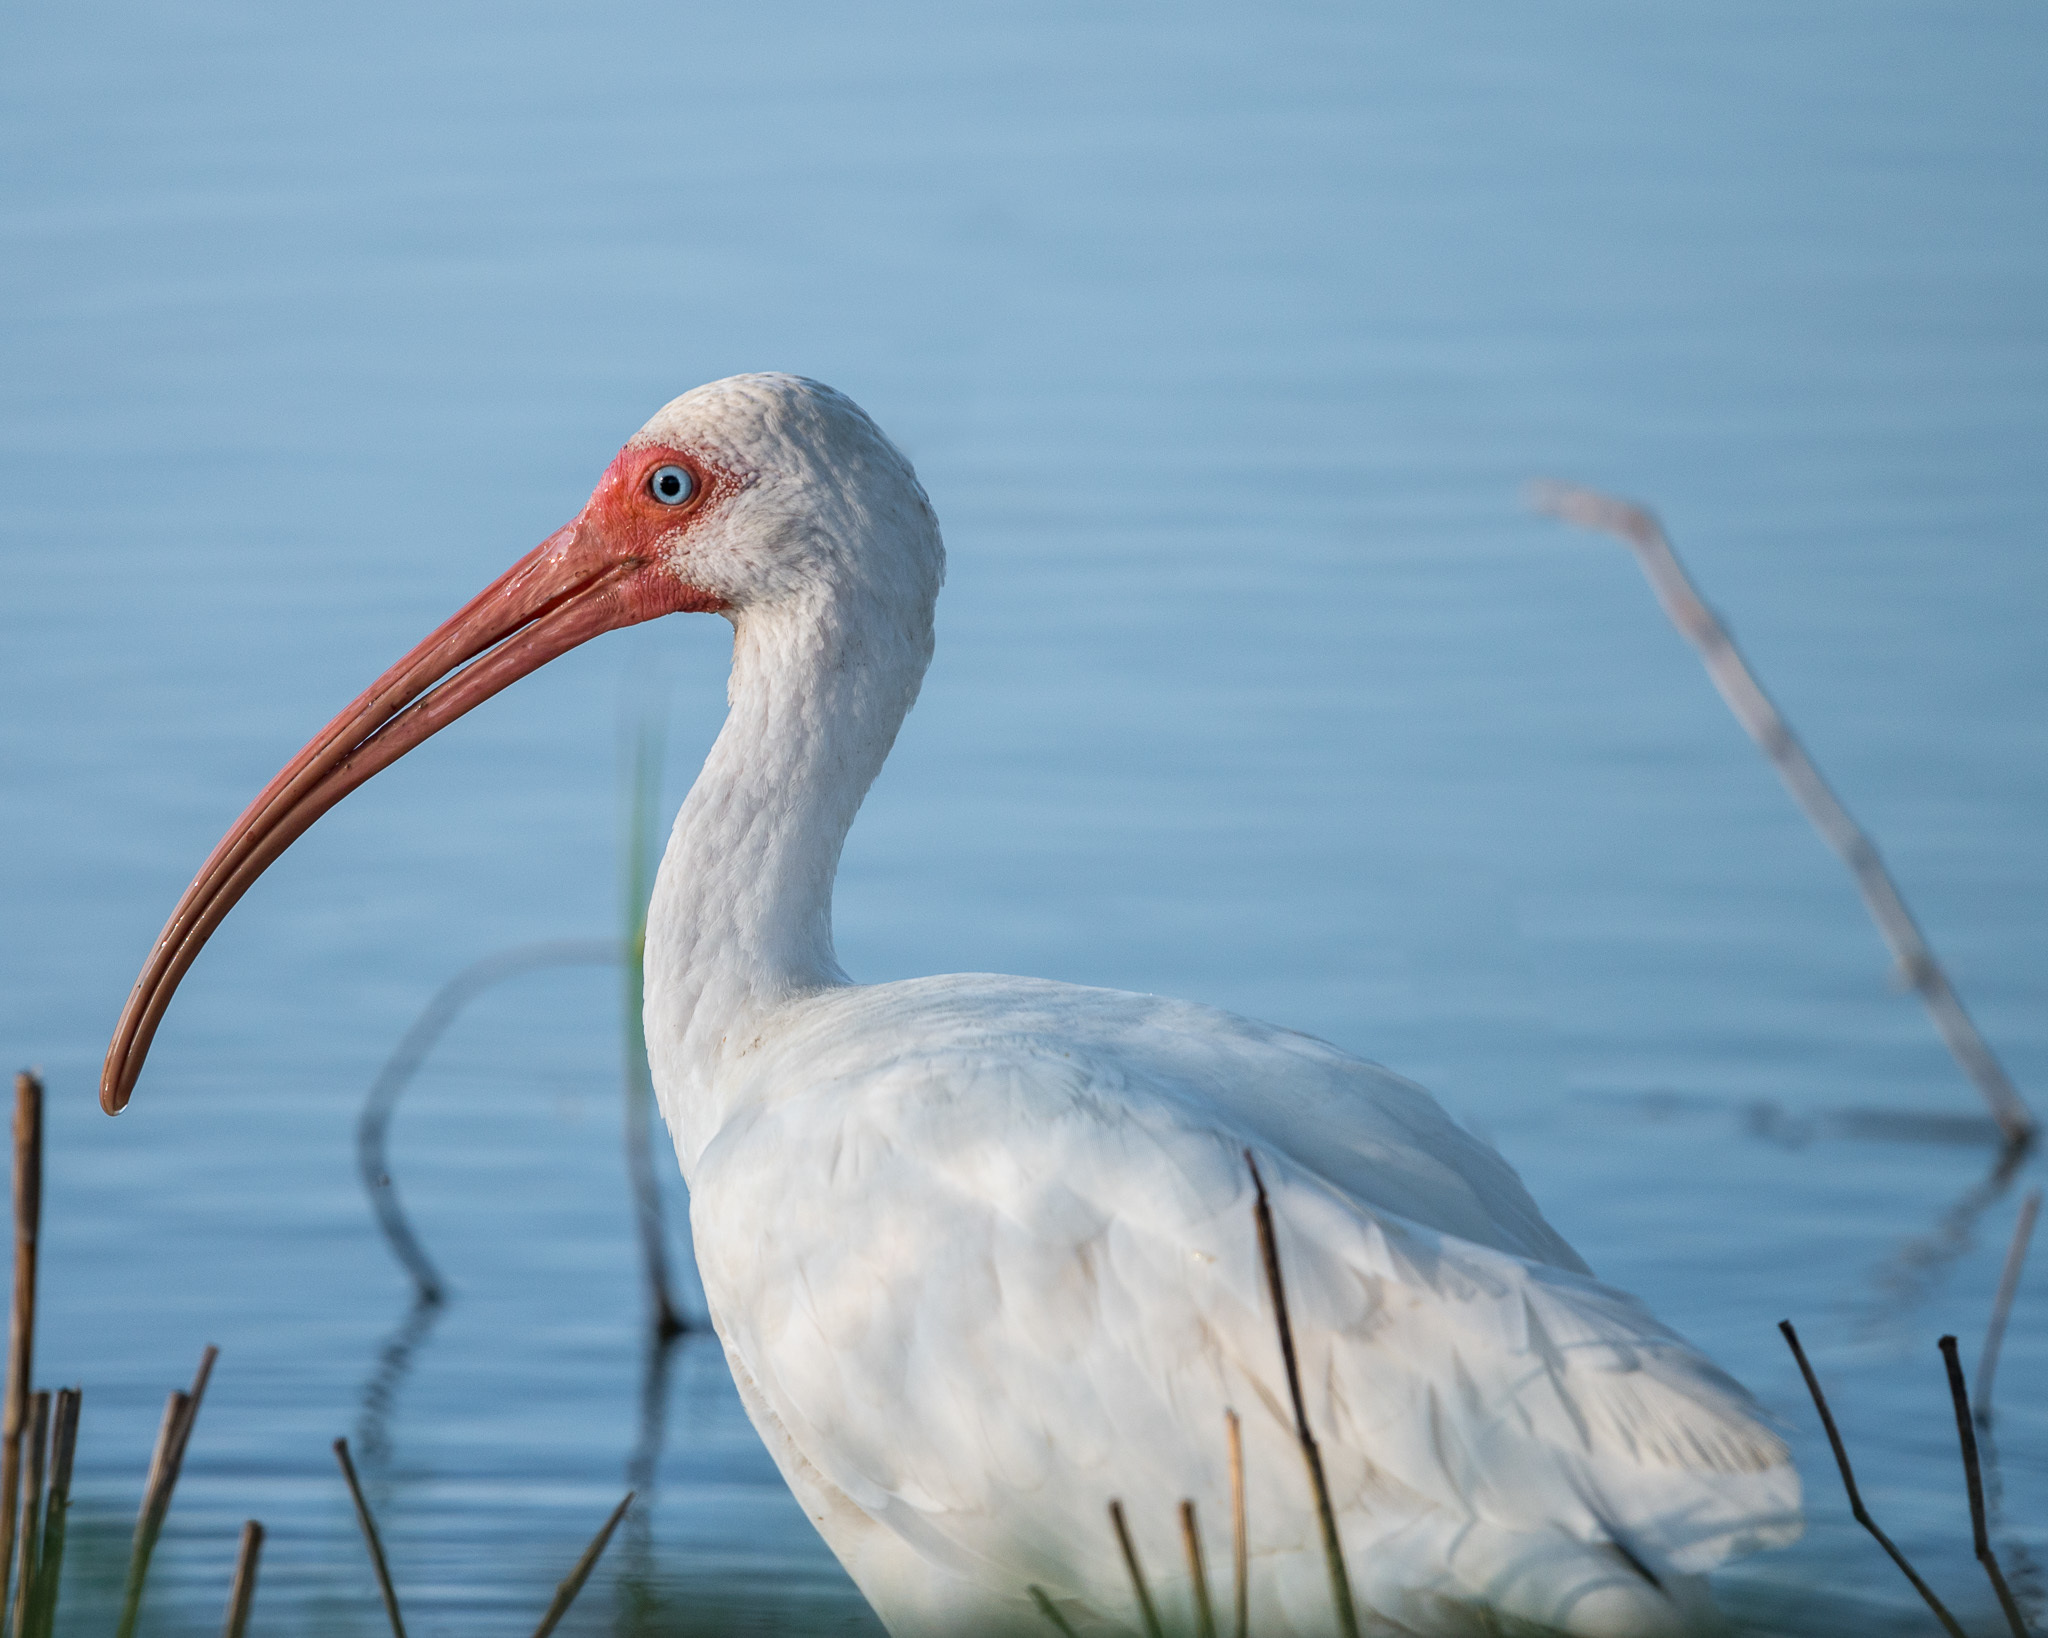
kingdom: Animalia
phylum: Chordata
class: Aves
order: Pelecaniformes
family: Threskiornithidae
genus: Eudocimus
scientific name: Eudocimus albus
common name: White ibis
